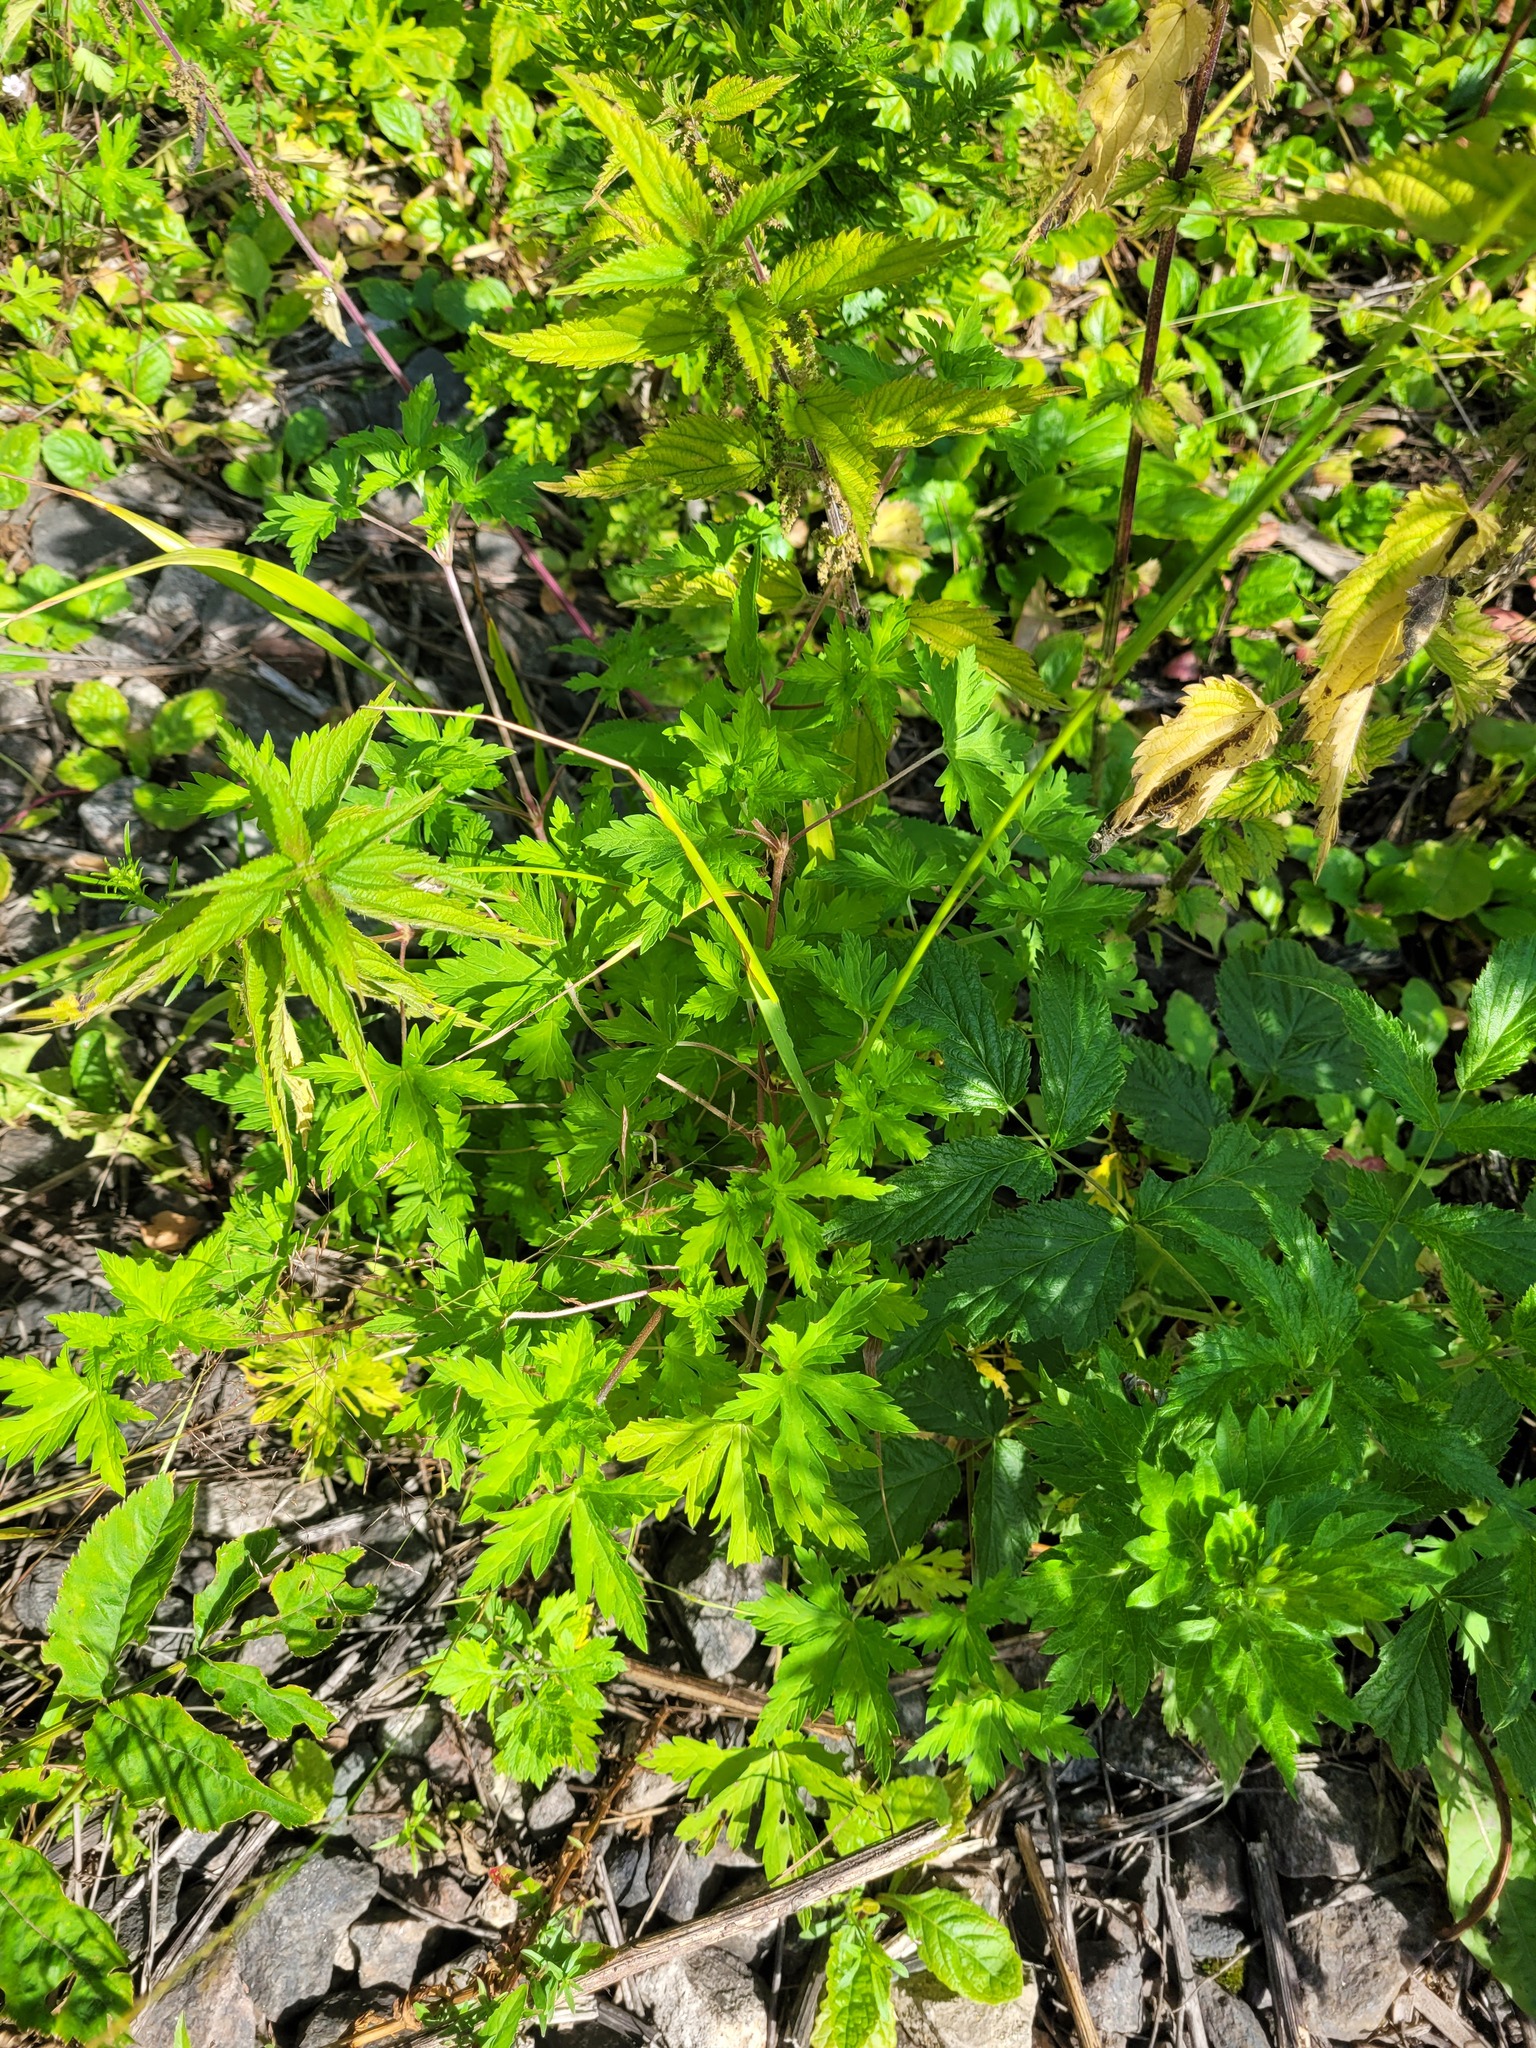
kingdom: Plantae
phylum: Tracheophyta
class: Magnoliopsida
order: Geraniales
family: Geraniaceae
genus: Geranium
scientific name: Geranium sibiricum
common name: Siberian crane's-bill
